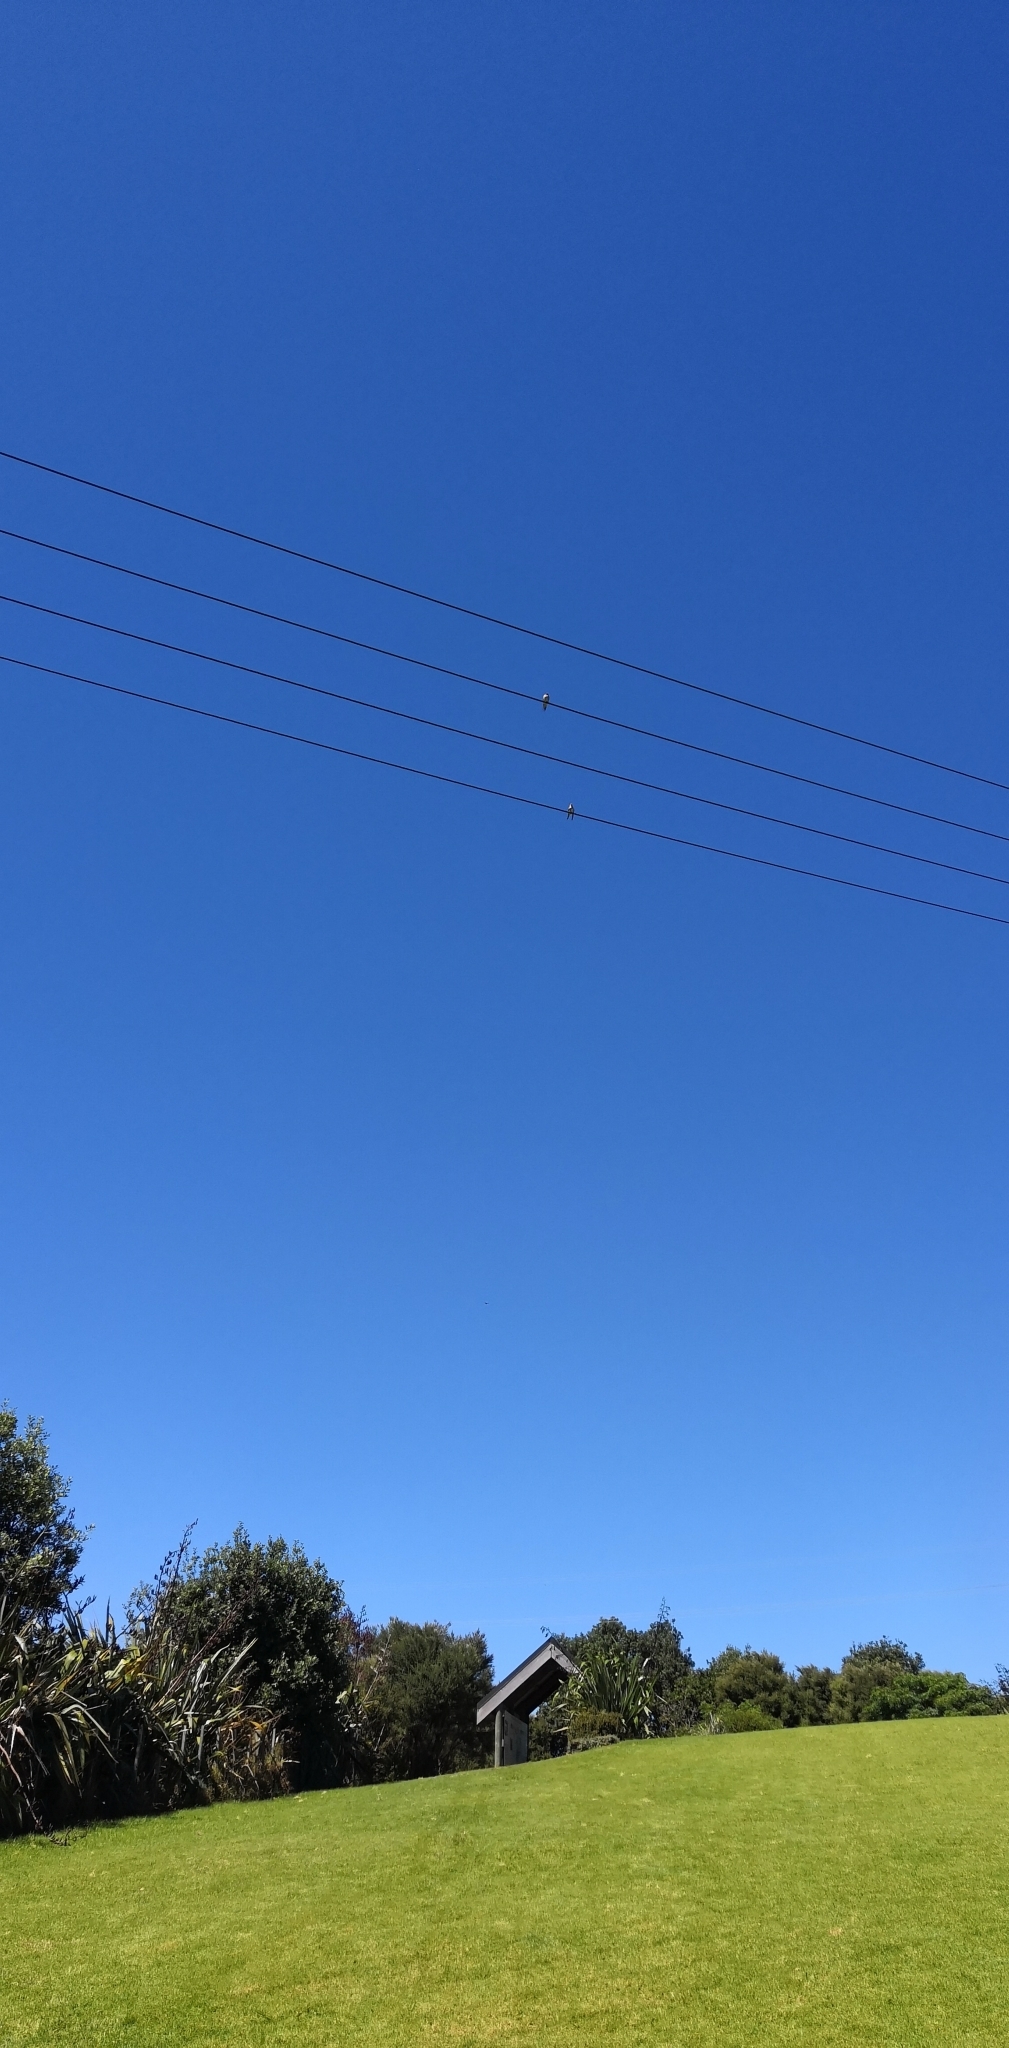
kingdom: Animalia
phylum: Chordata
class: Aves
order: Passeriformes
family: Hirundinidae
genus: Hirundo
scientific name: Hirundo neoxena
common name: Welcome swallow
